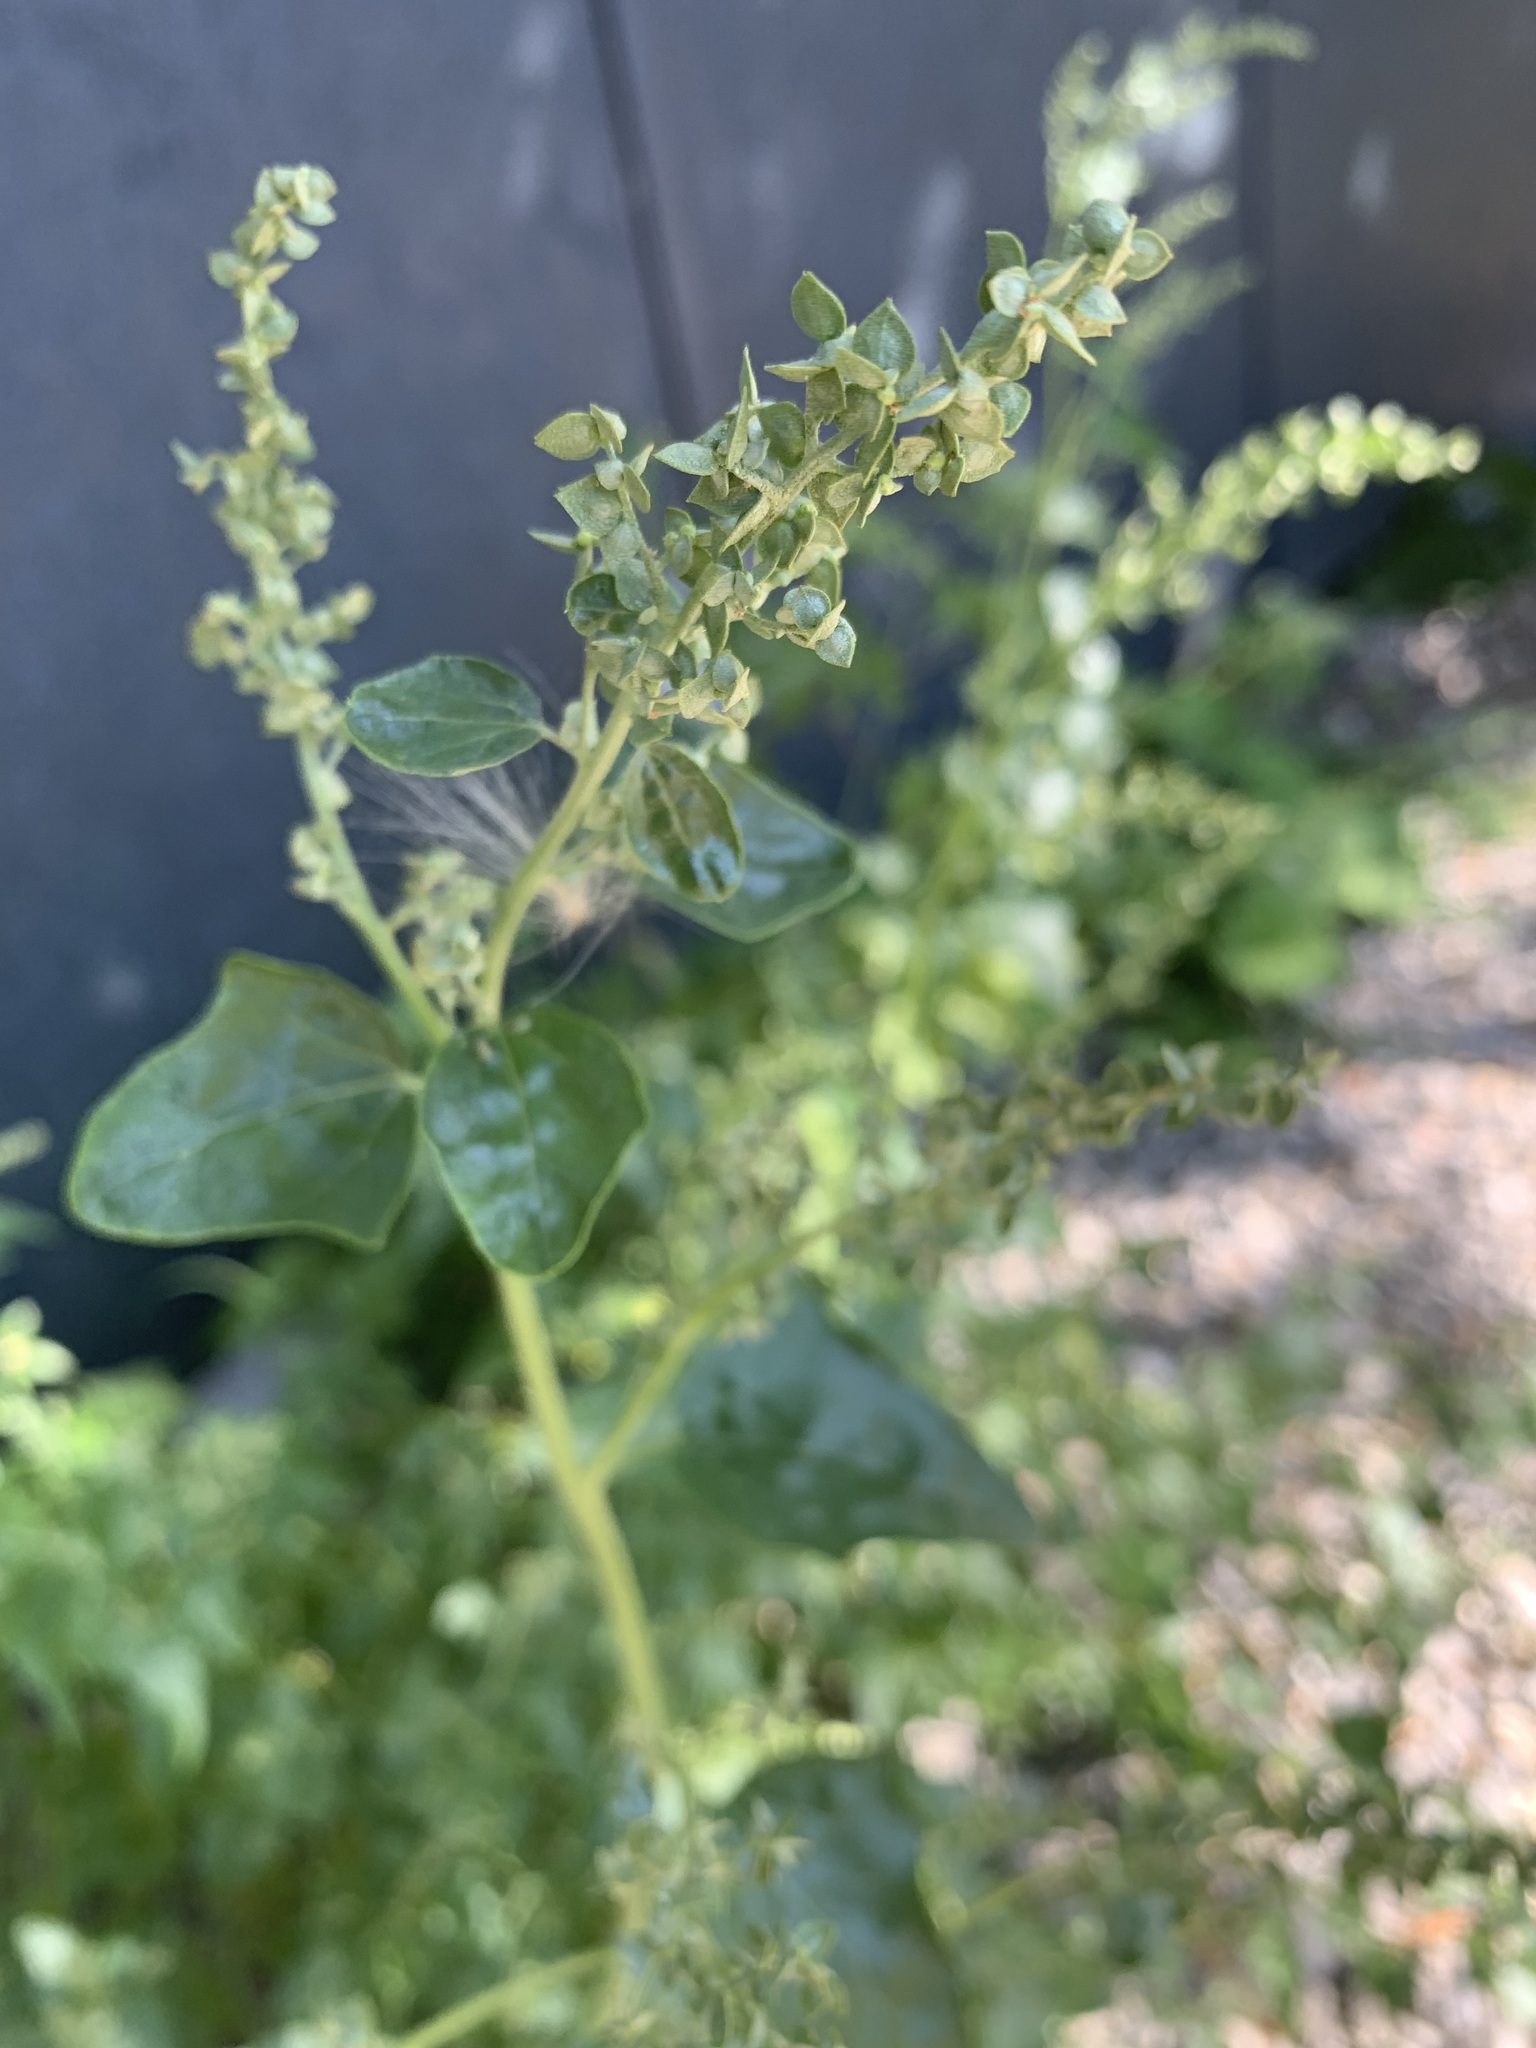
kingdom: Plantae
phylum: Tracheophyta
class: Magnoliopsida
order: Caryophyllales
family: Amaranthaceae
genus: Atriplex
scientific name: Atriplex sagittata
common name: Purple orache
